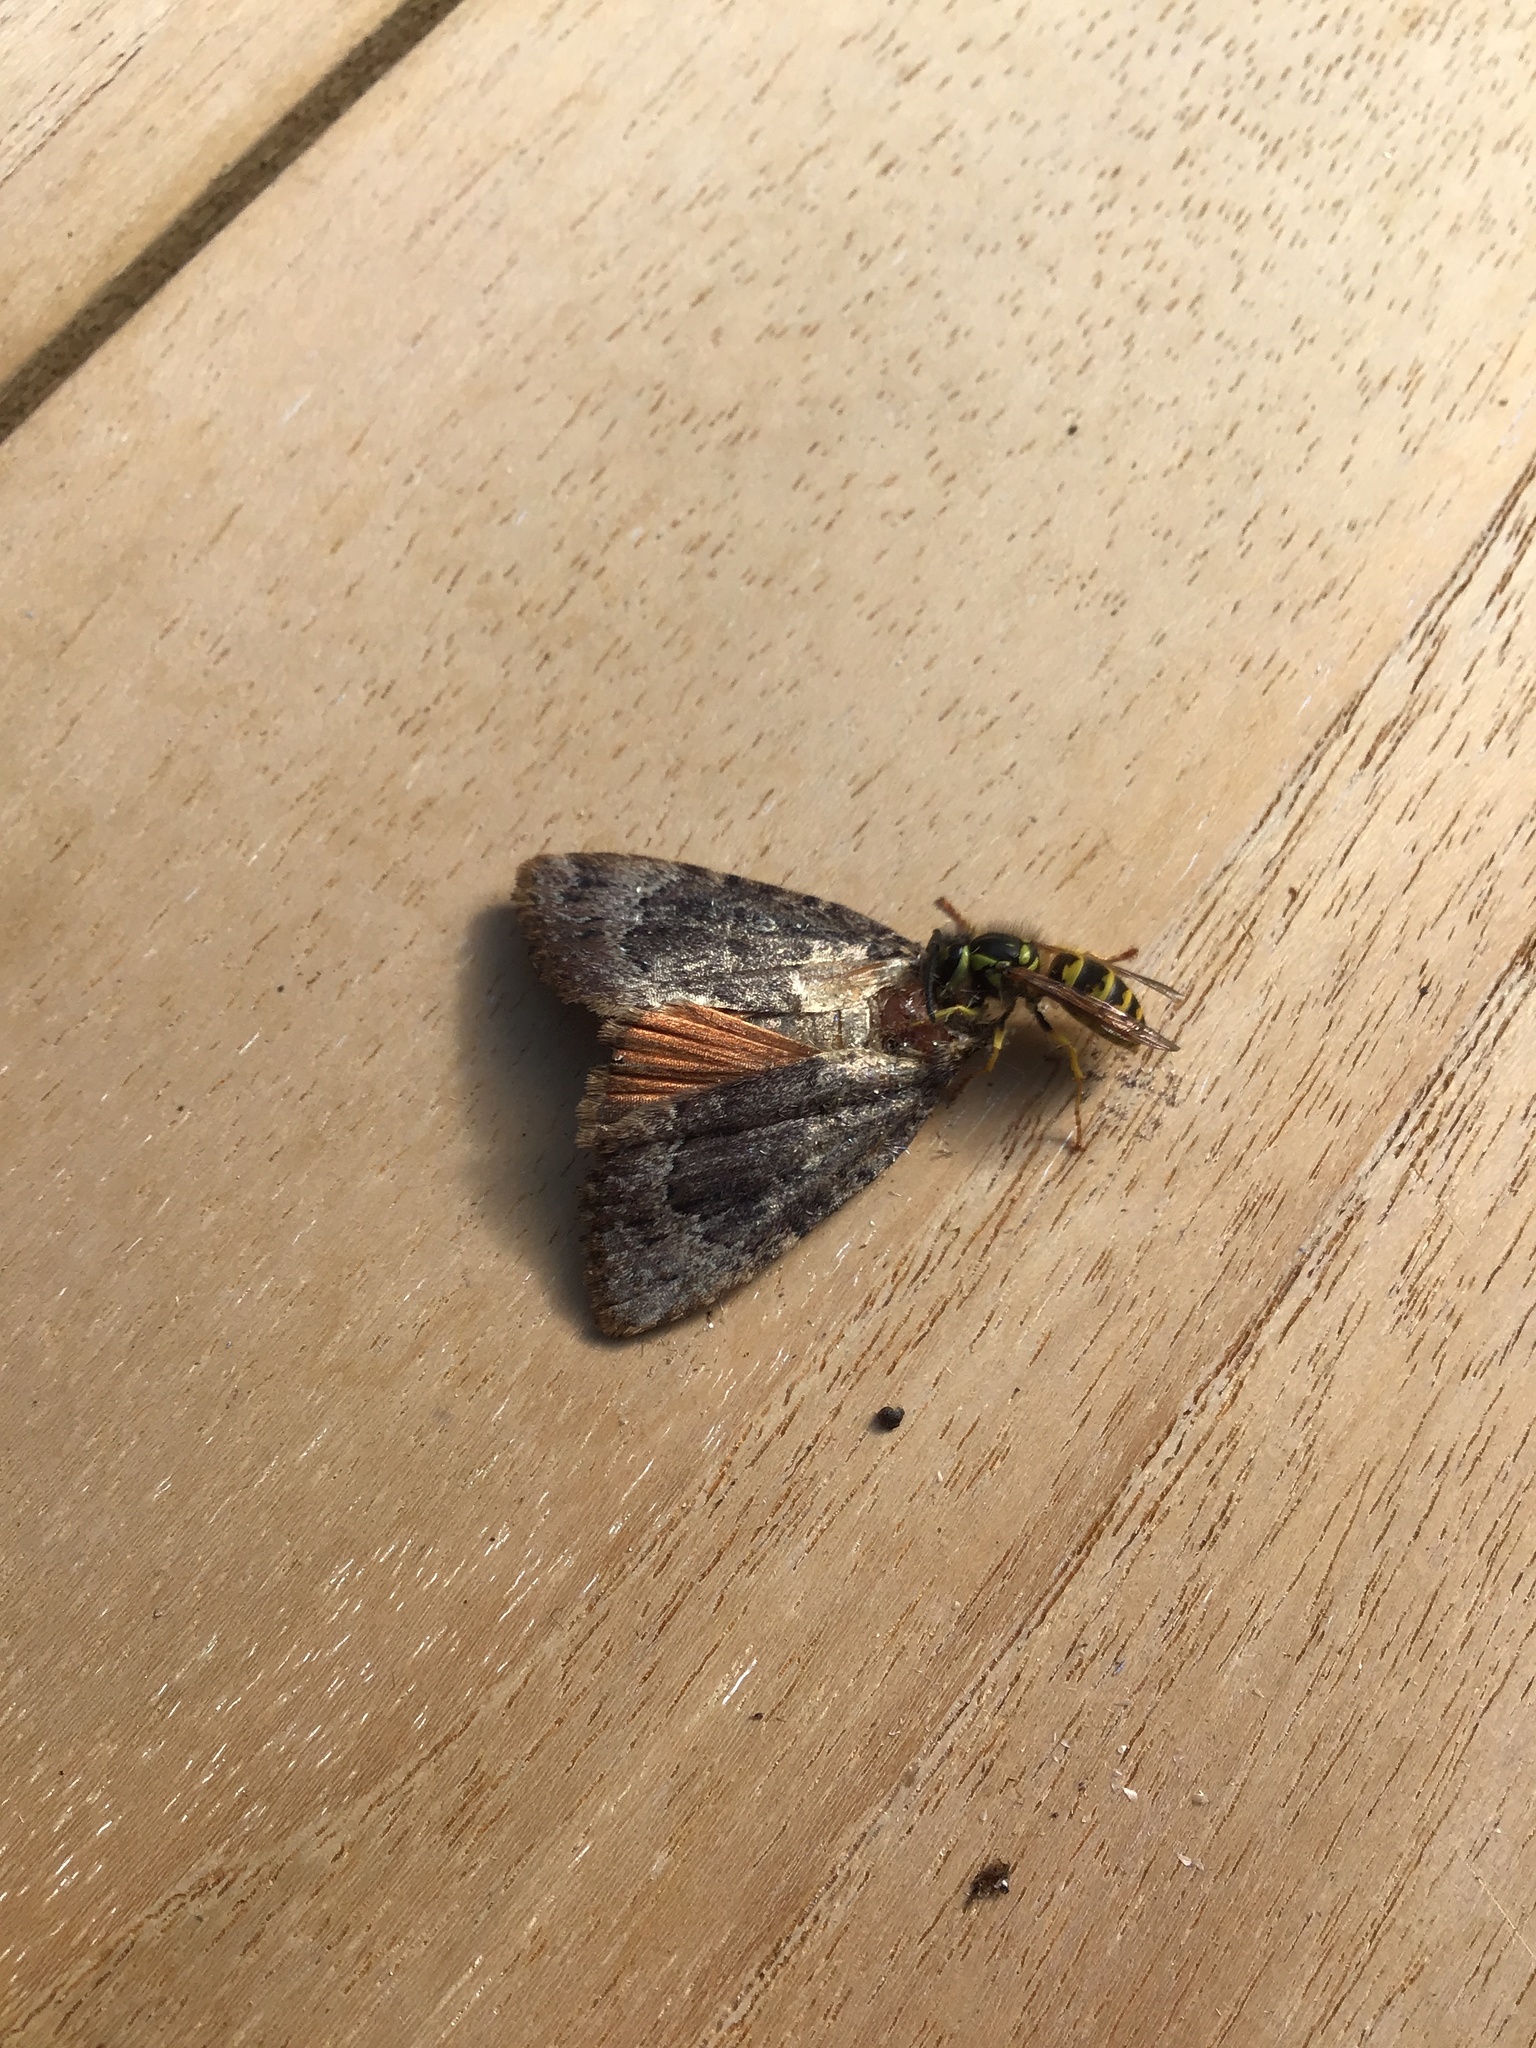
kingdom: Animalia
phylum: Arthropoda
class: Insecta
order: Lepidoptera
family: Noctuidae
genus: Amphipyra
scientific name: Amphipyra pyramidoides
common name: American copper underwing
